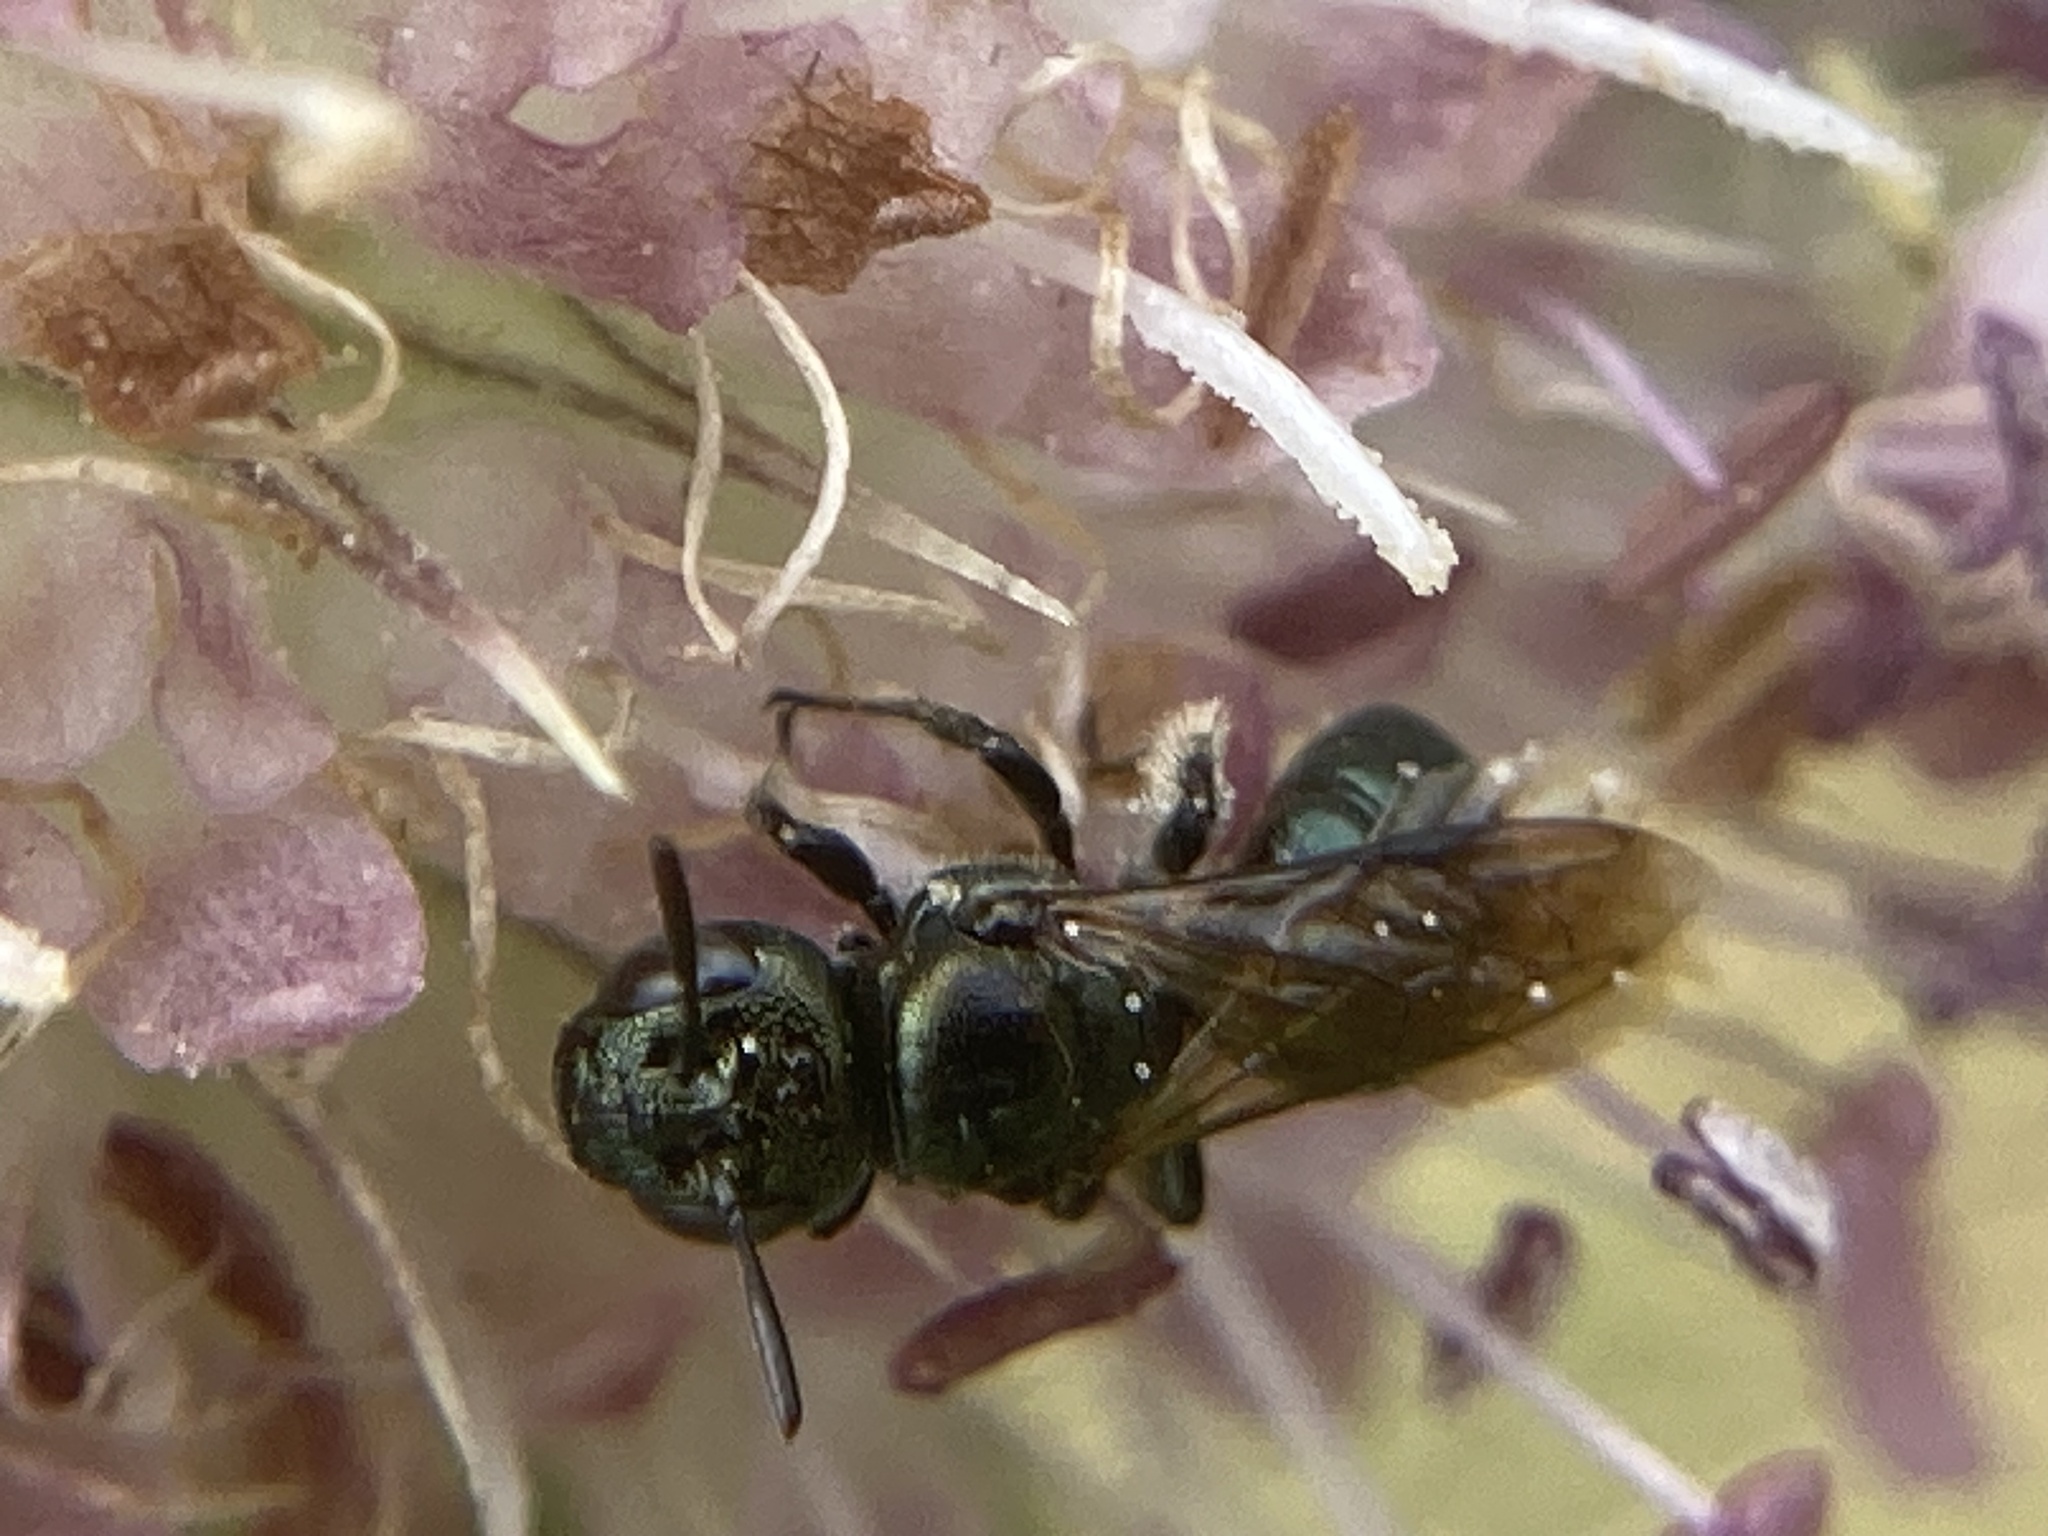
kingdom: Animalia
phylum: Arthropoda
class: Insecta
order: Hymenoptera
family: Apidae
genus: Ceratina
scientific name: Ceratina calcarata
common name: Spurred carpenter bee
